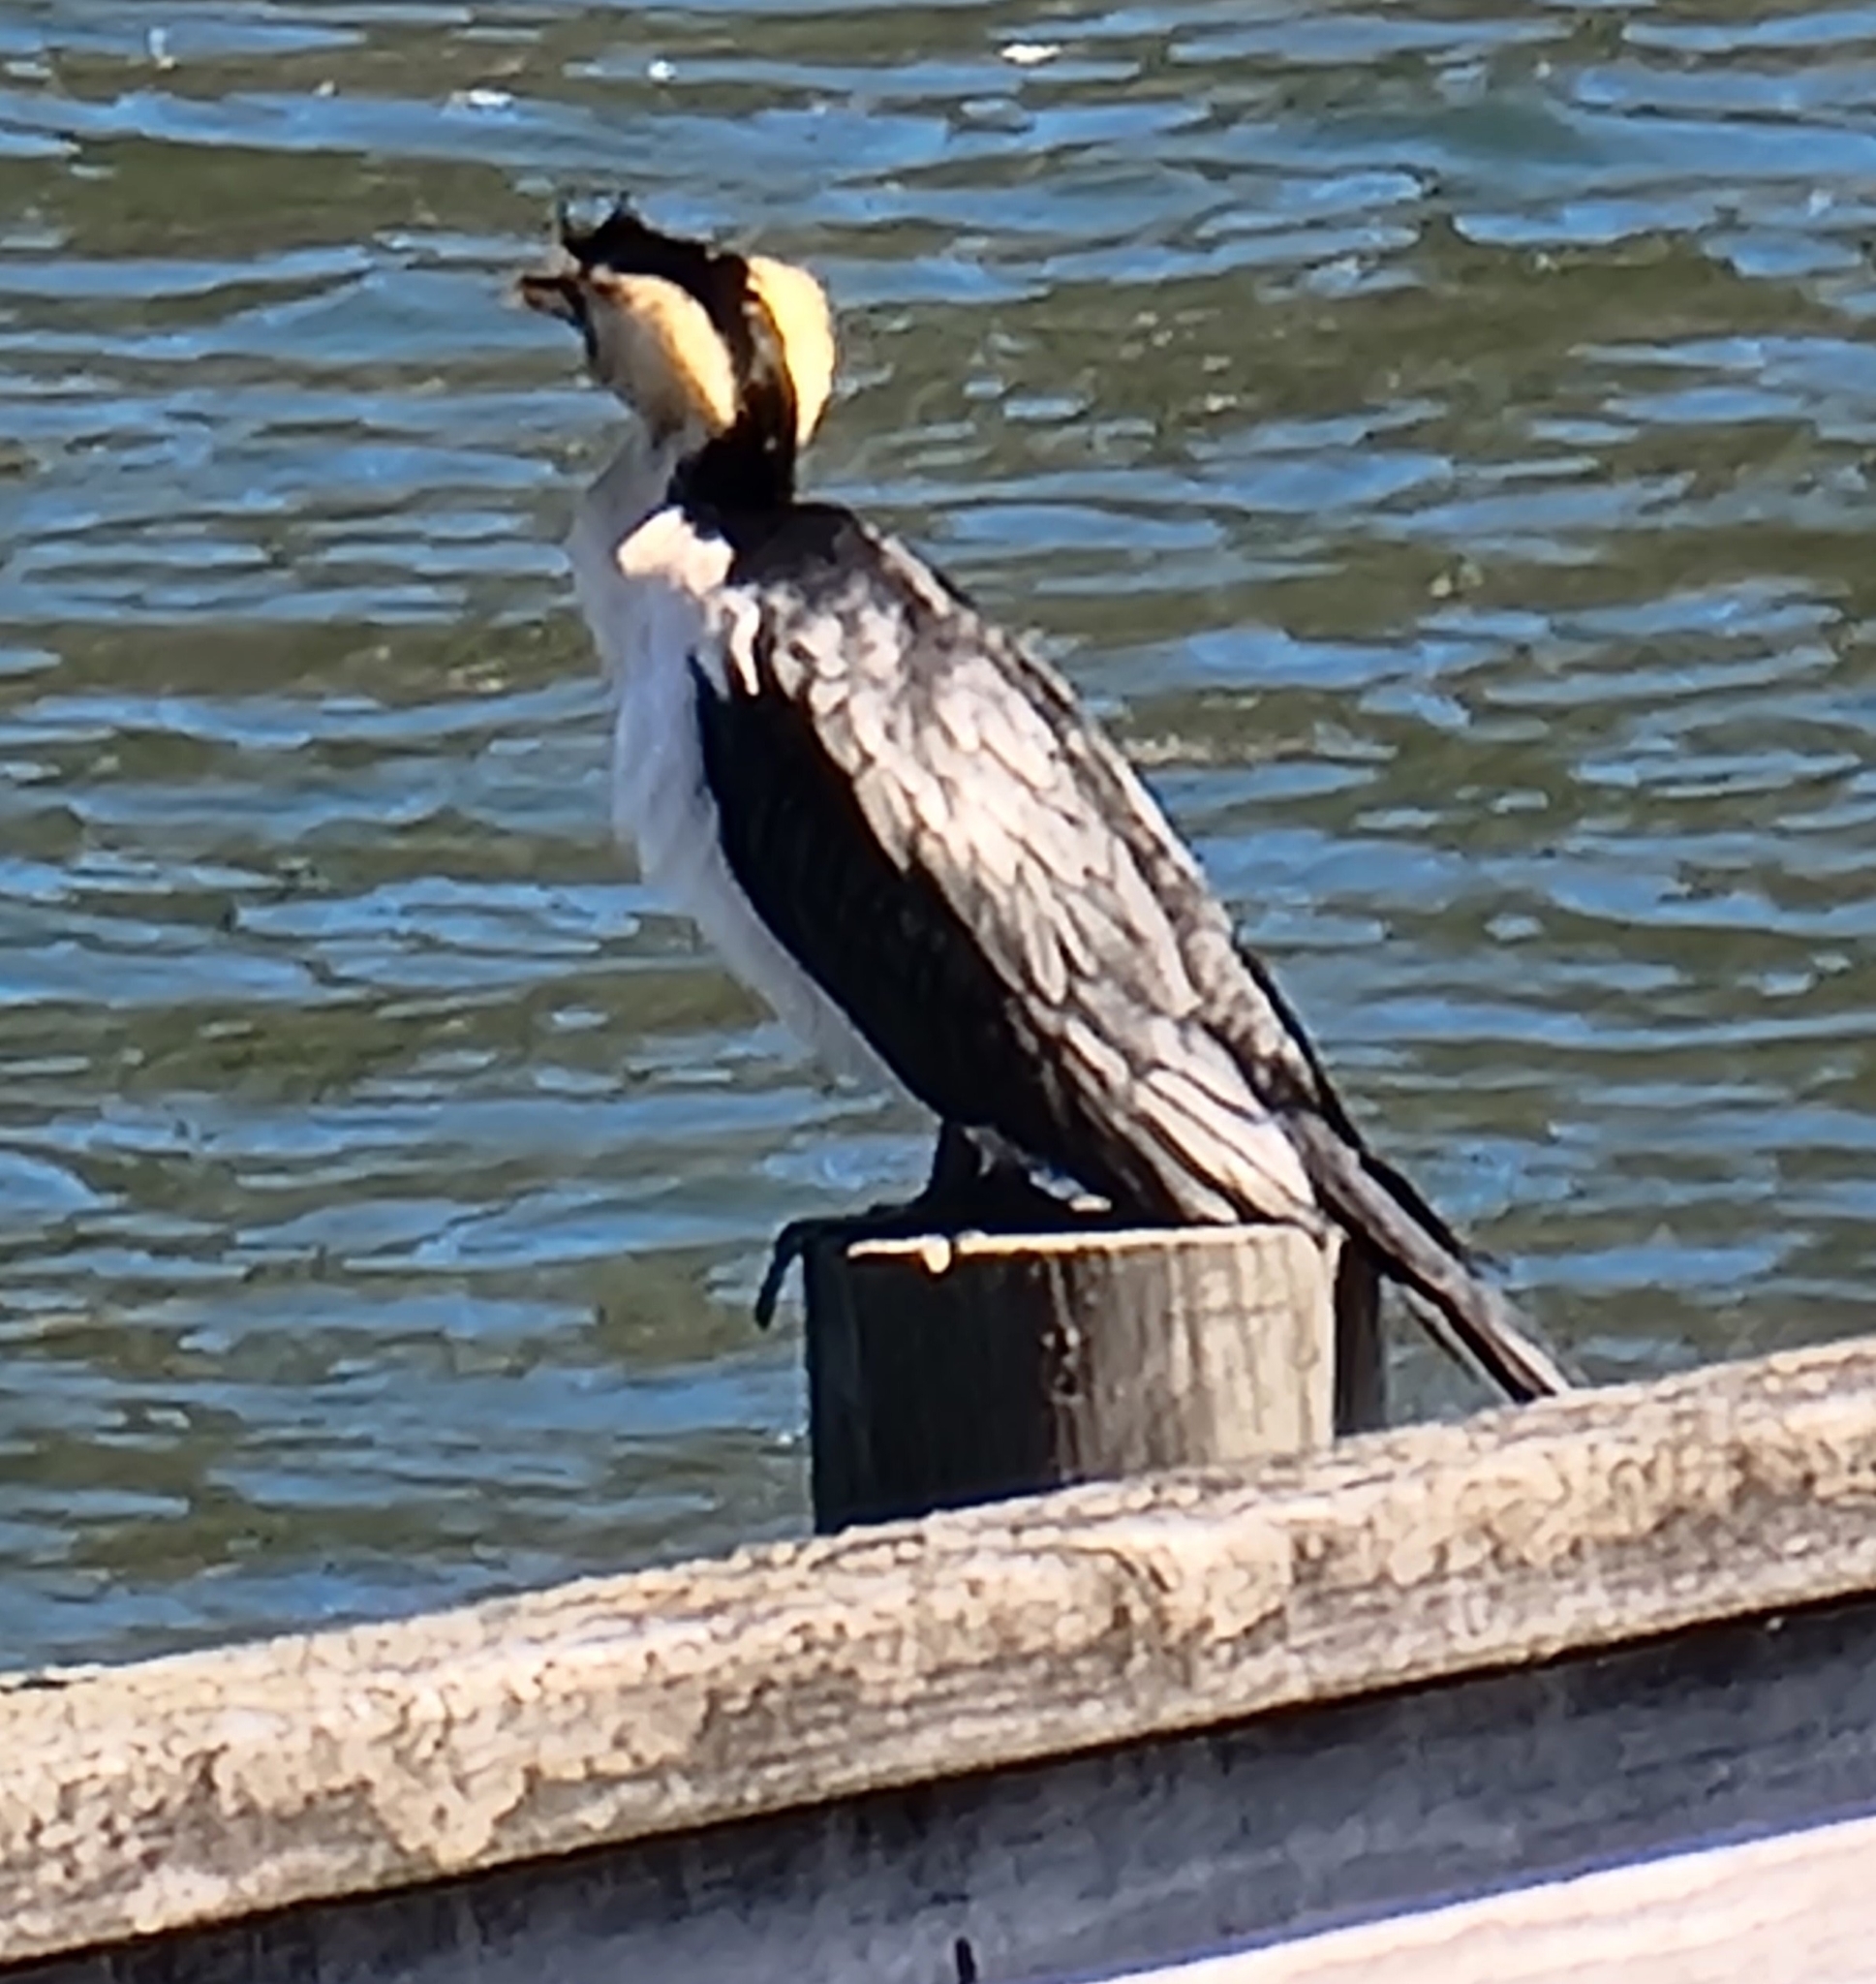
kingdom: Animalia
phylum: Chordata
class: Aves
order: Suliformes
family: Phalacrocoracidae
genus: Microcarbo
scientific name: Microcarbo melanoleucos
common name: Little pied cormorant
